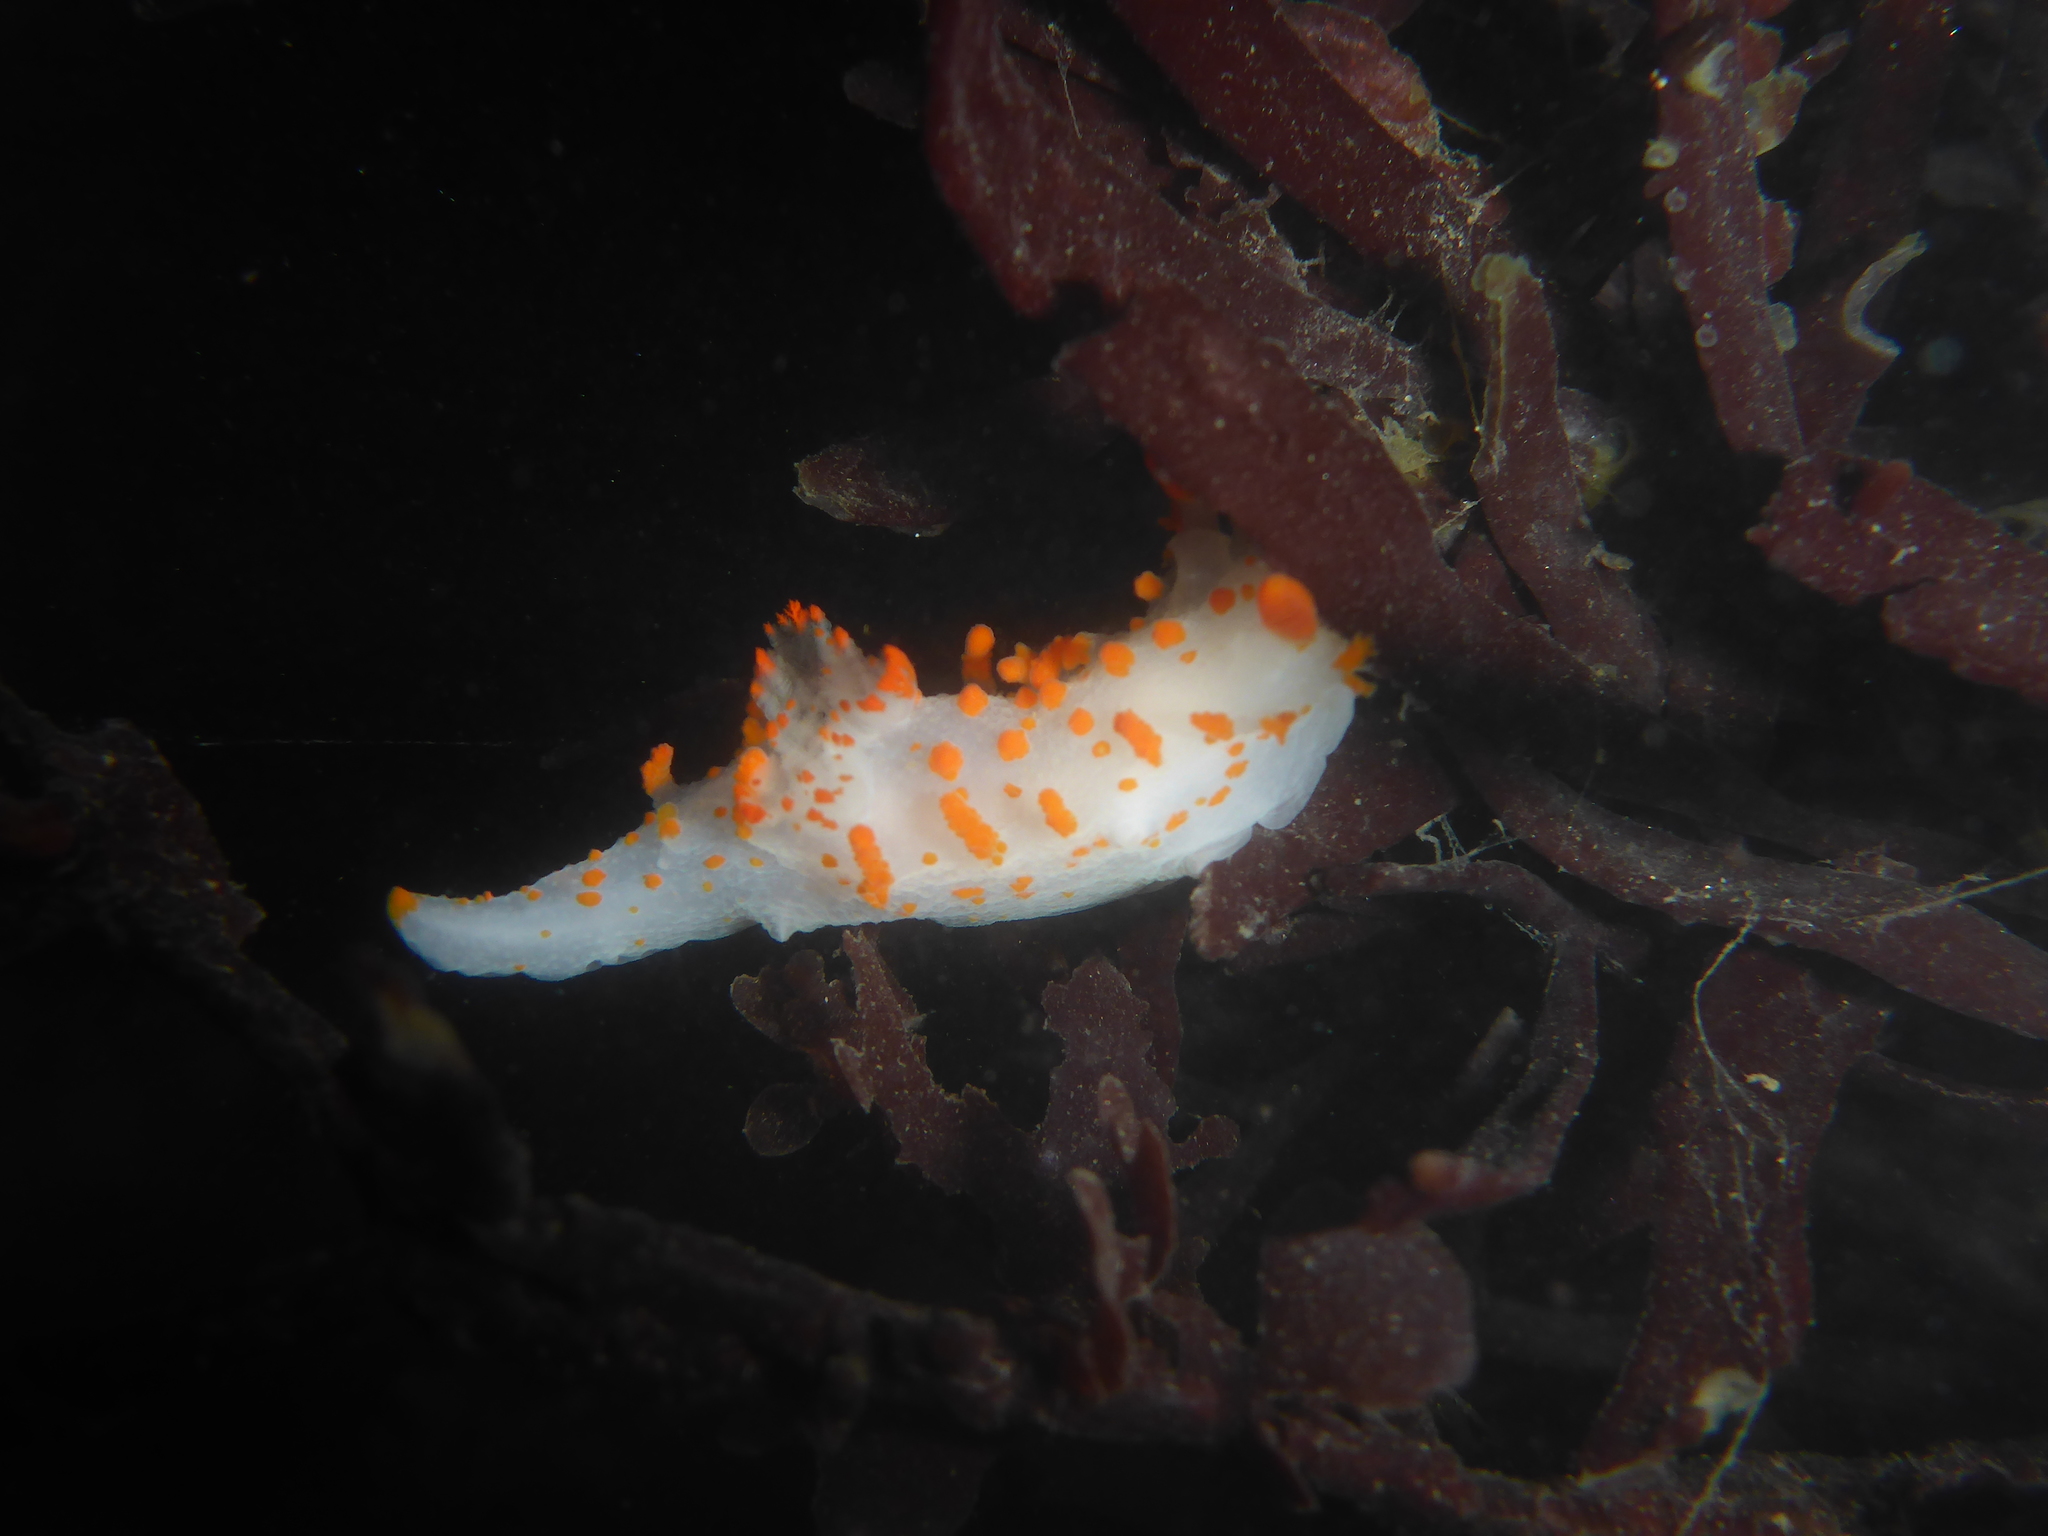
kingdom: Animalia
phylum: Mollusca
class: Gastropoda
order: Nudibranchia
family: Polyceridae
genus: Triopha
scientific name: Triopha catalinae
